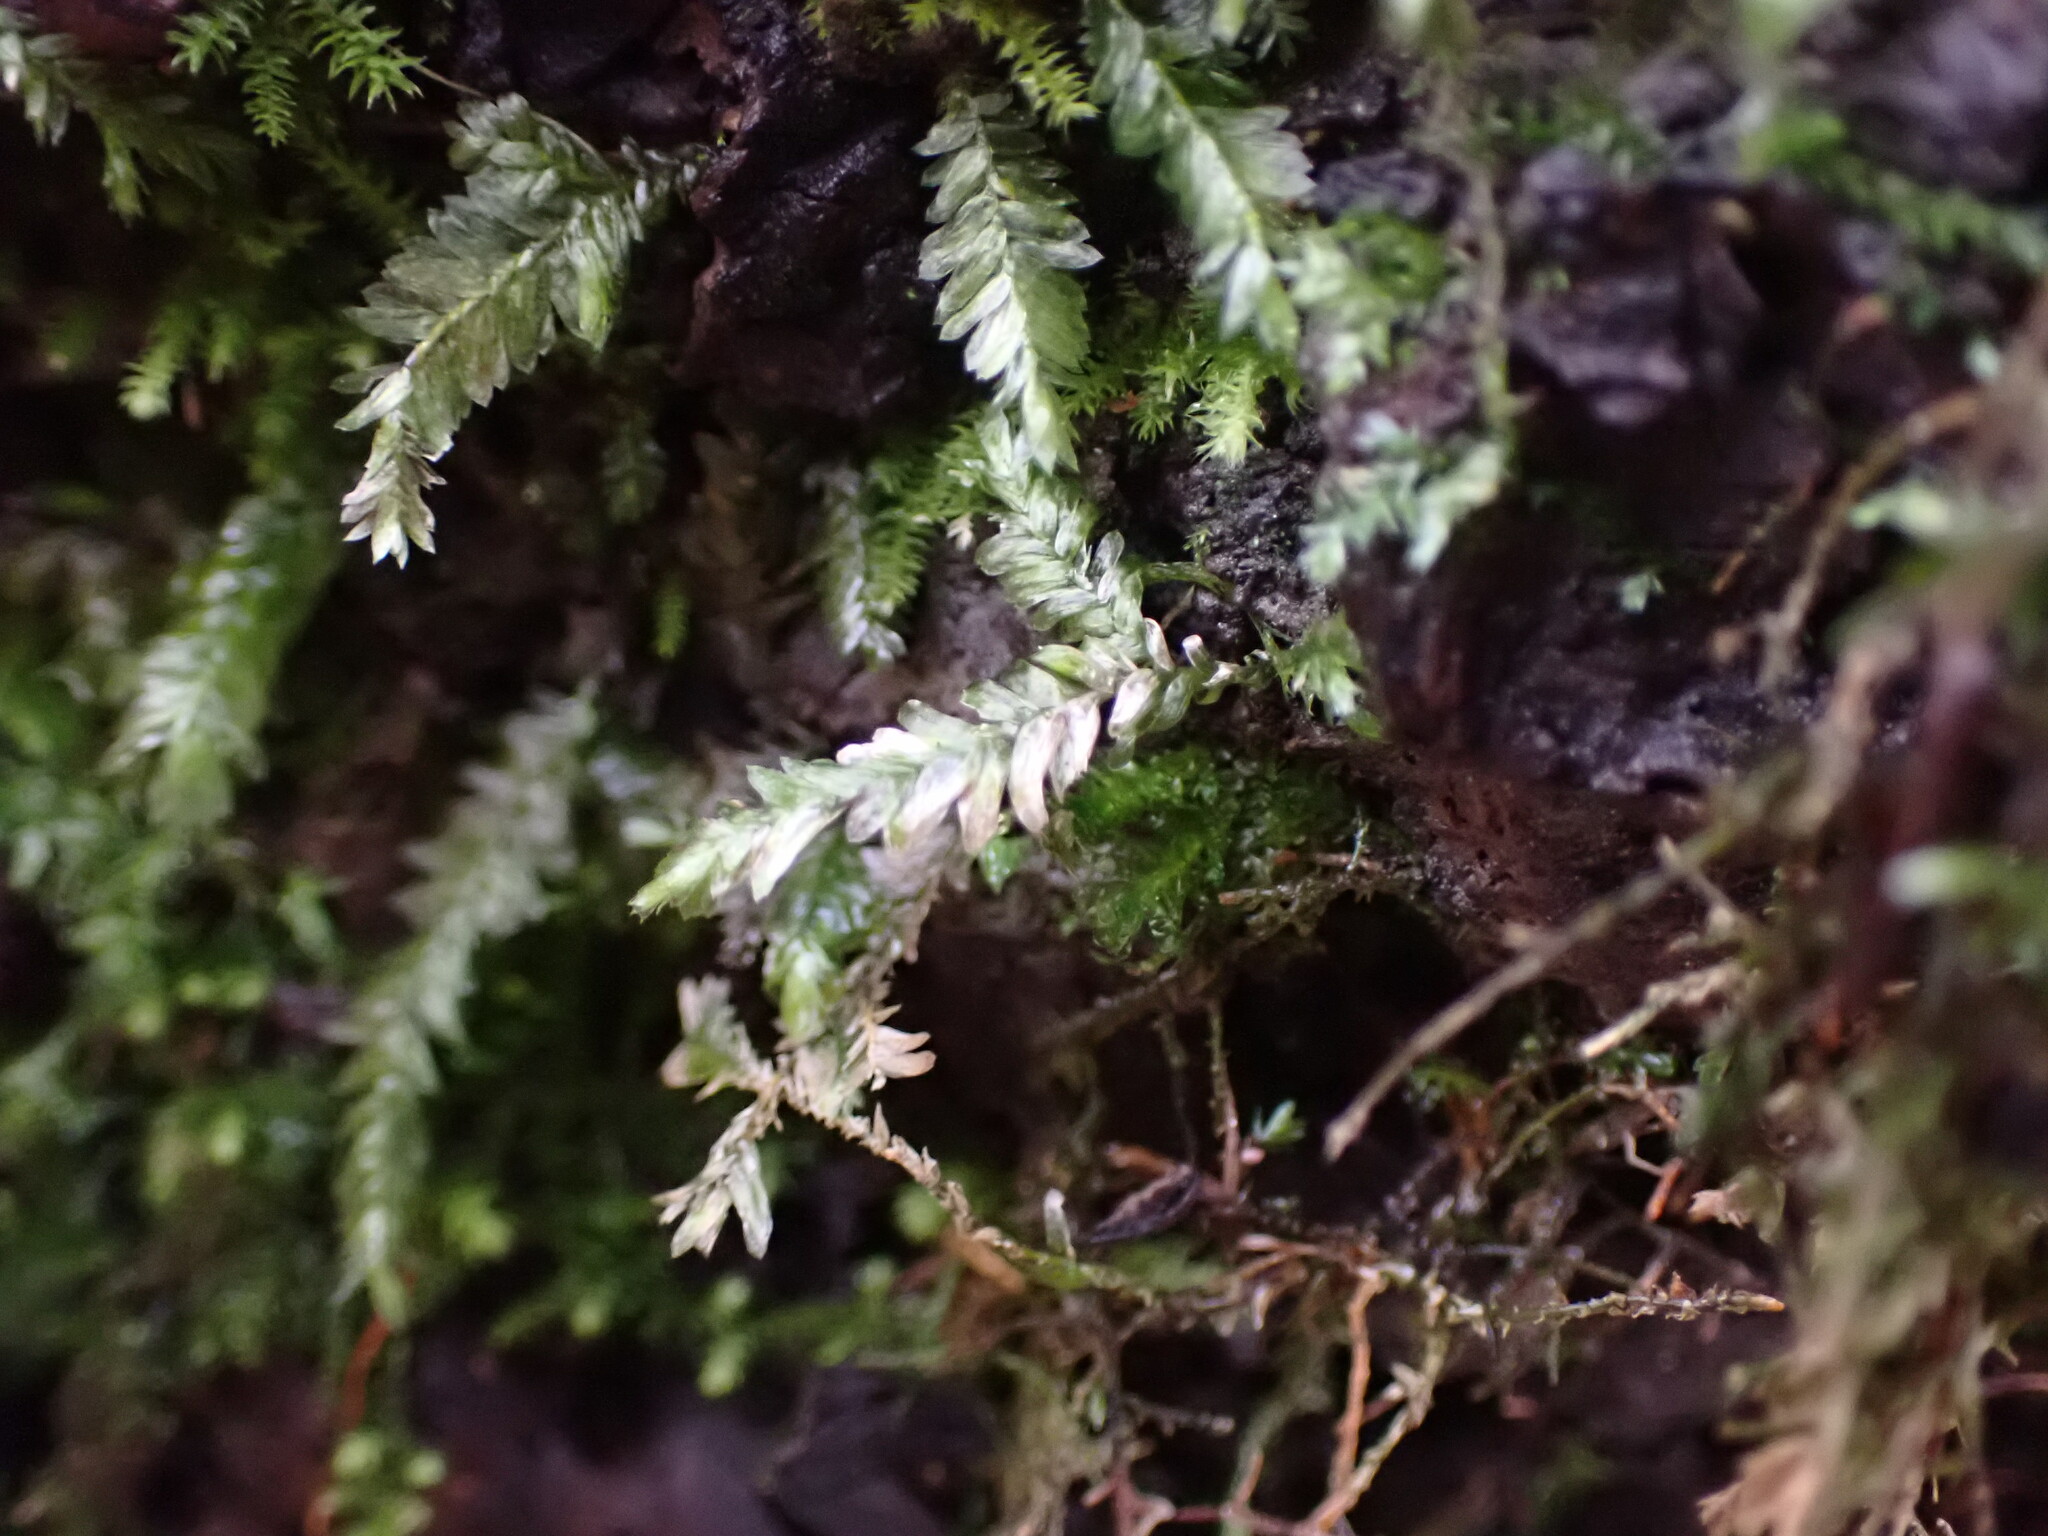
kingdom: Plantae
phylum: Bryophyta
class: Bryopsida
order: Hypnales
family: Neckeraceae
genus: Dannorrisia
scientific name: Dannorrisia bigelovii
